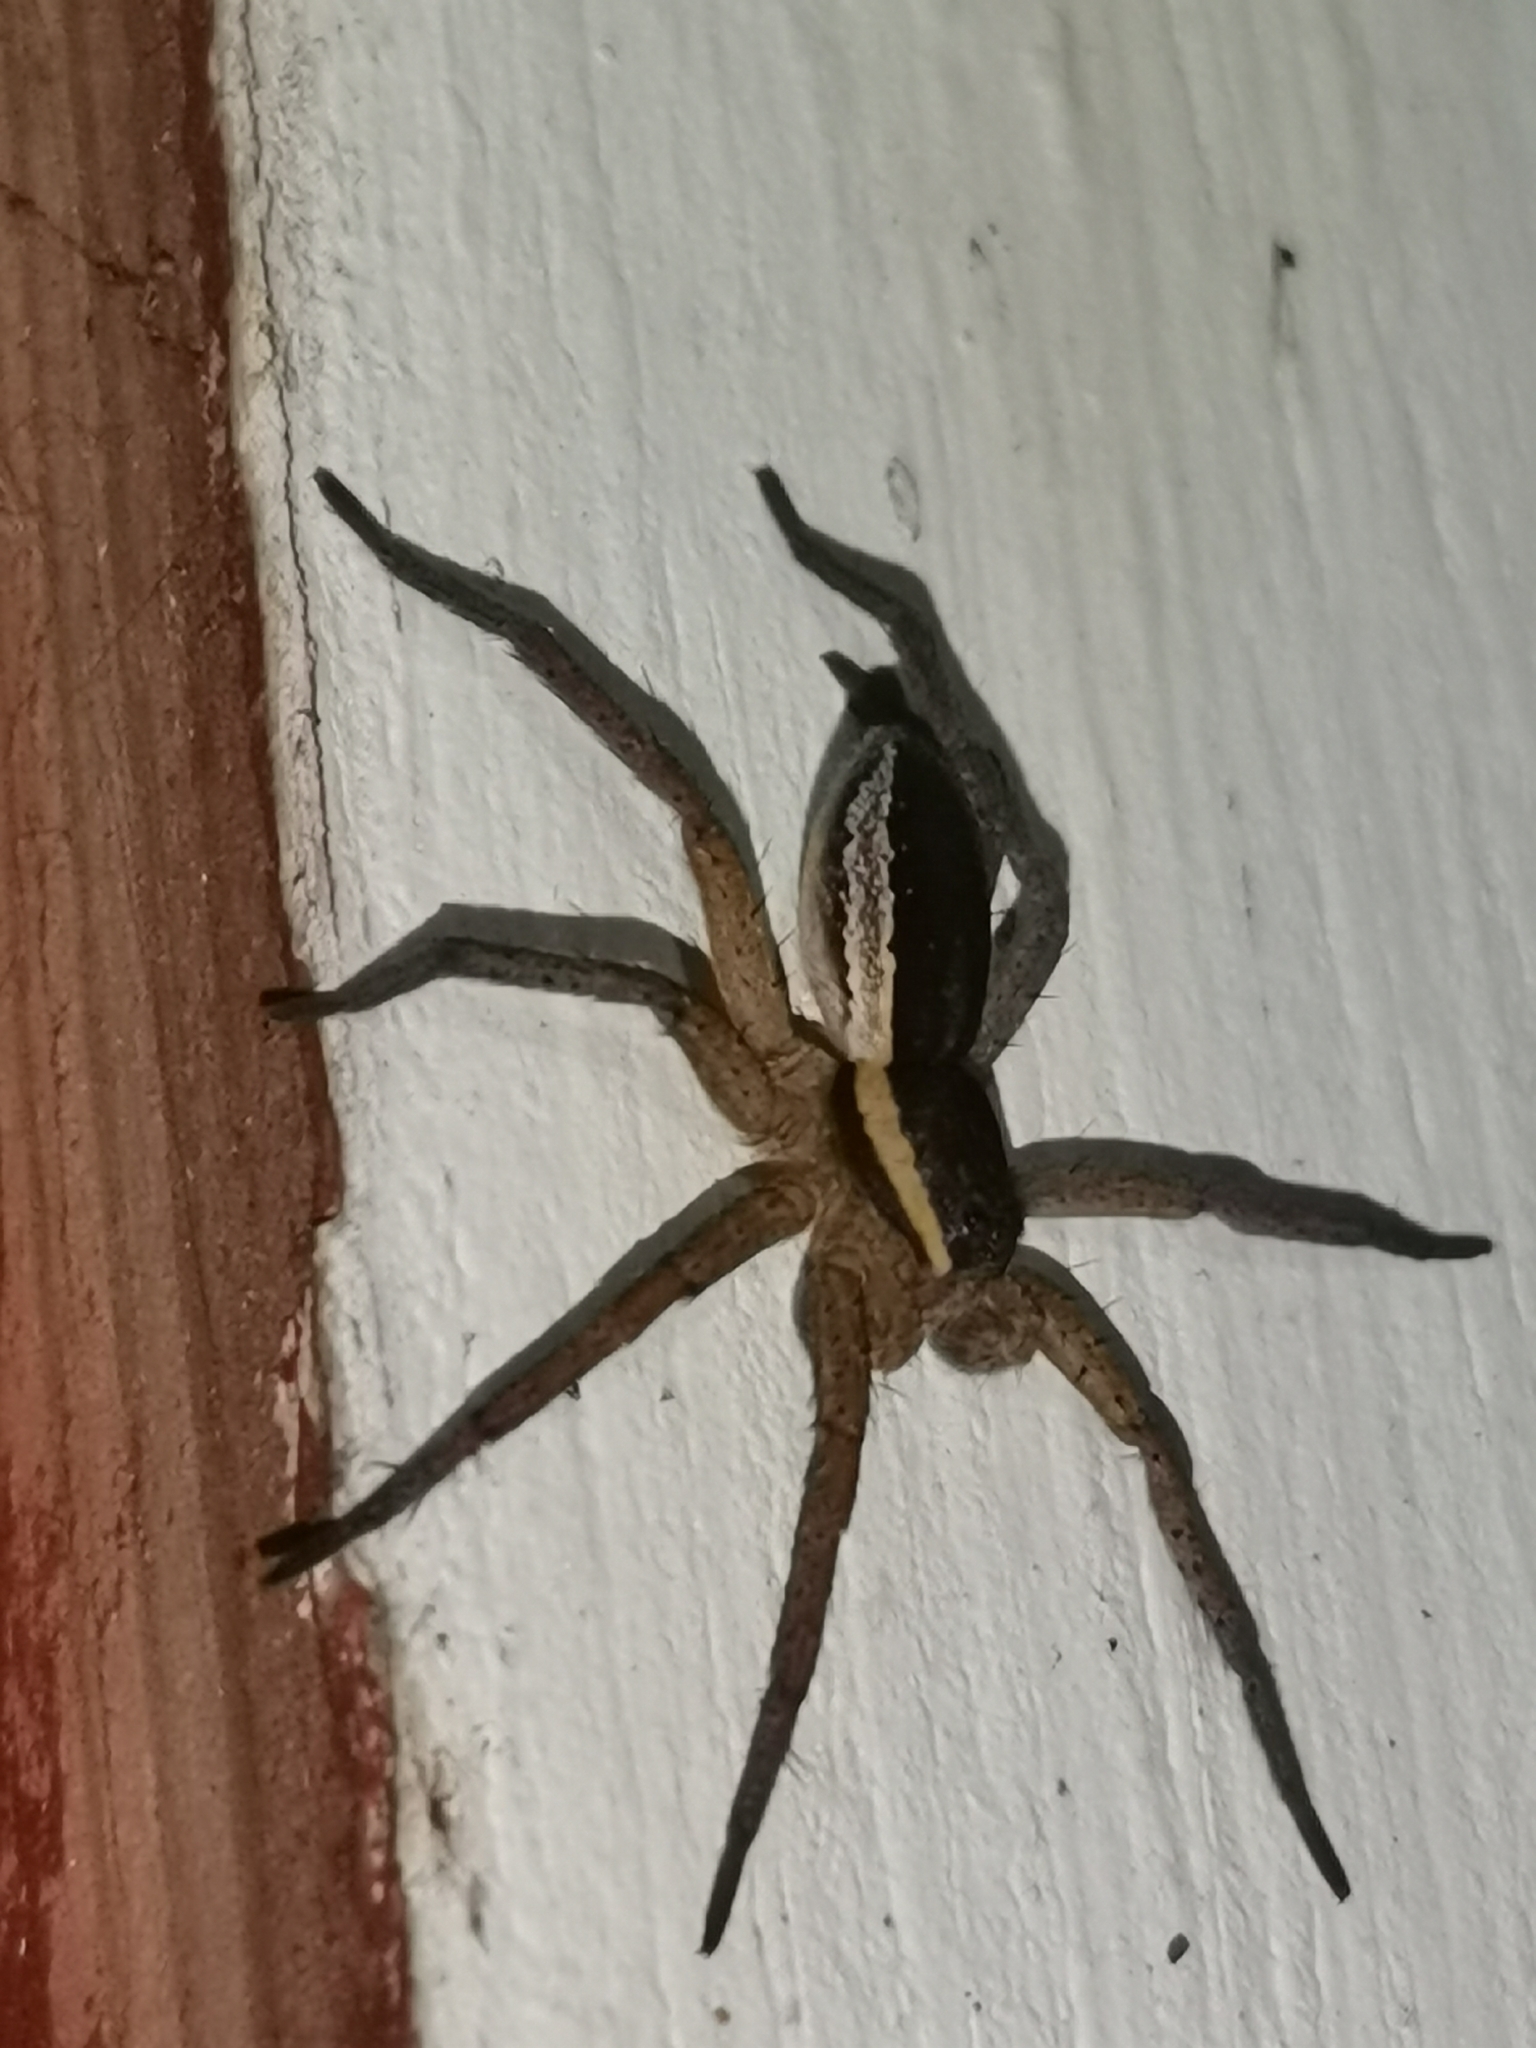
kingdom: Animalia
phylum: Arthropoda
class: Arachnida
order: Araneae
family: Pisauridae
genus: Dolomedes
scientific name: Dolomedes fimbriatus
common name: Raft spider
